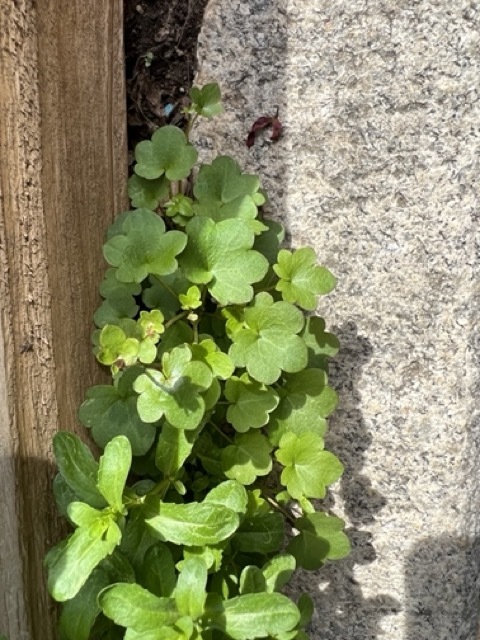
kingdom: Plantae
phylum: Tracheophyta
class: Magnoliopsida
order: Lamiales
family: Plantaginaceae
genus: Cymbalaria
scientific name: Cymbalaria muralis
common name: Ivy-leaved toadflax
